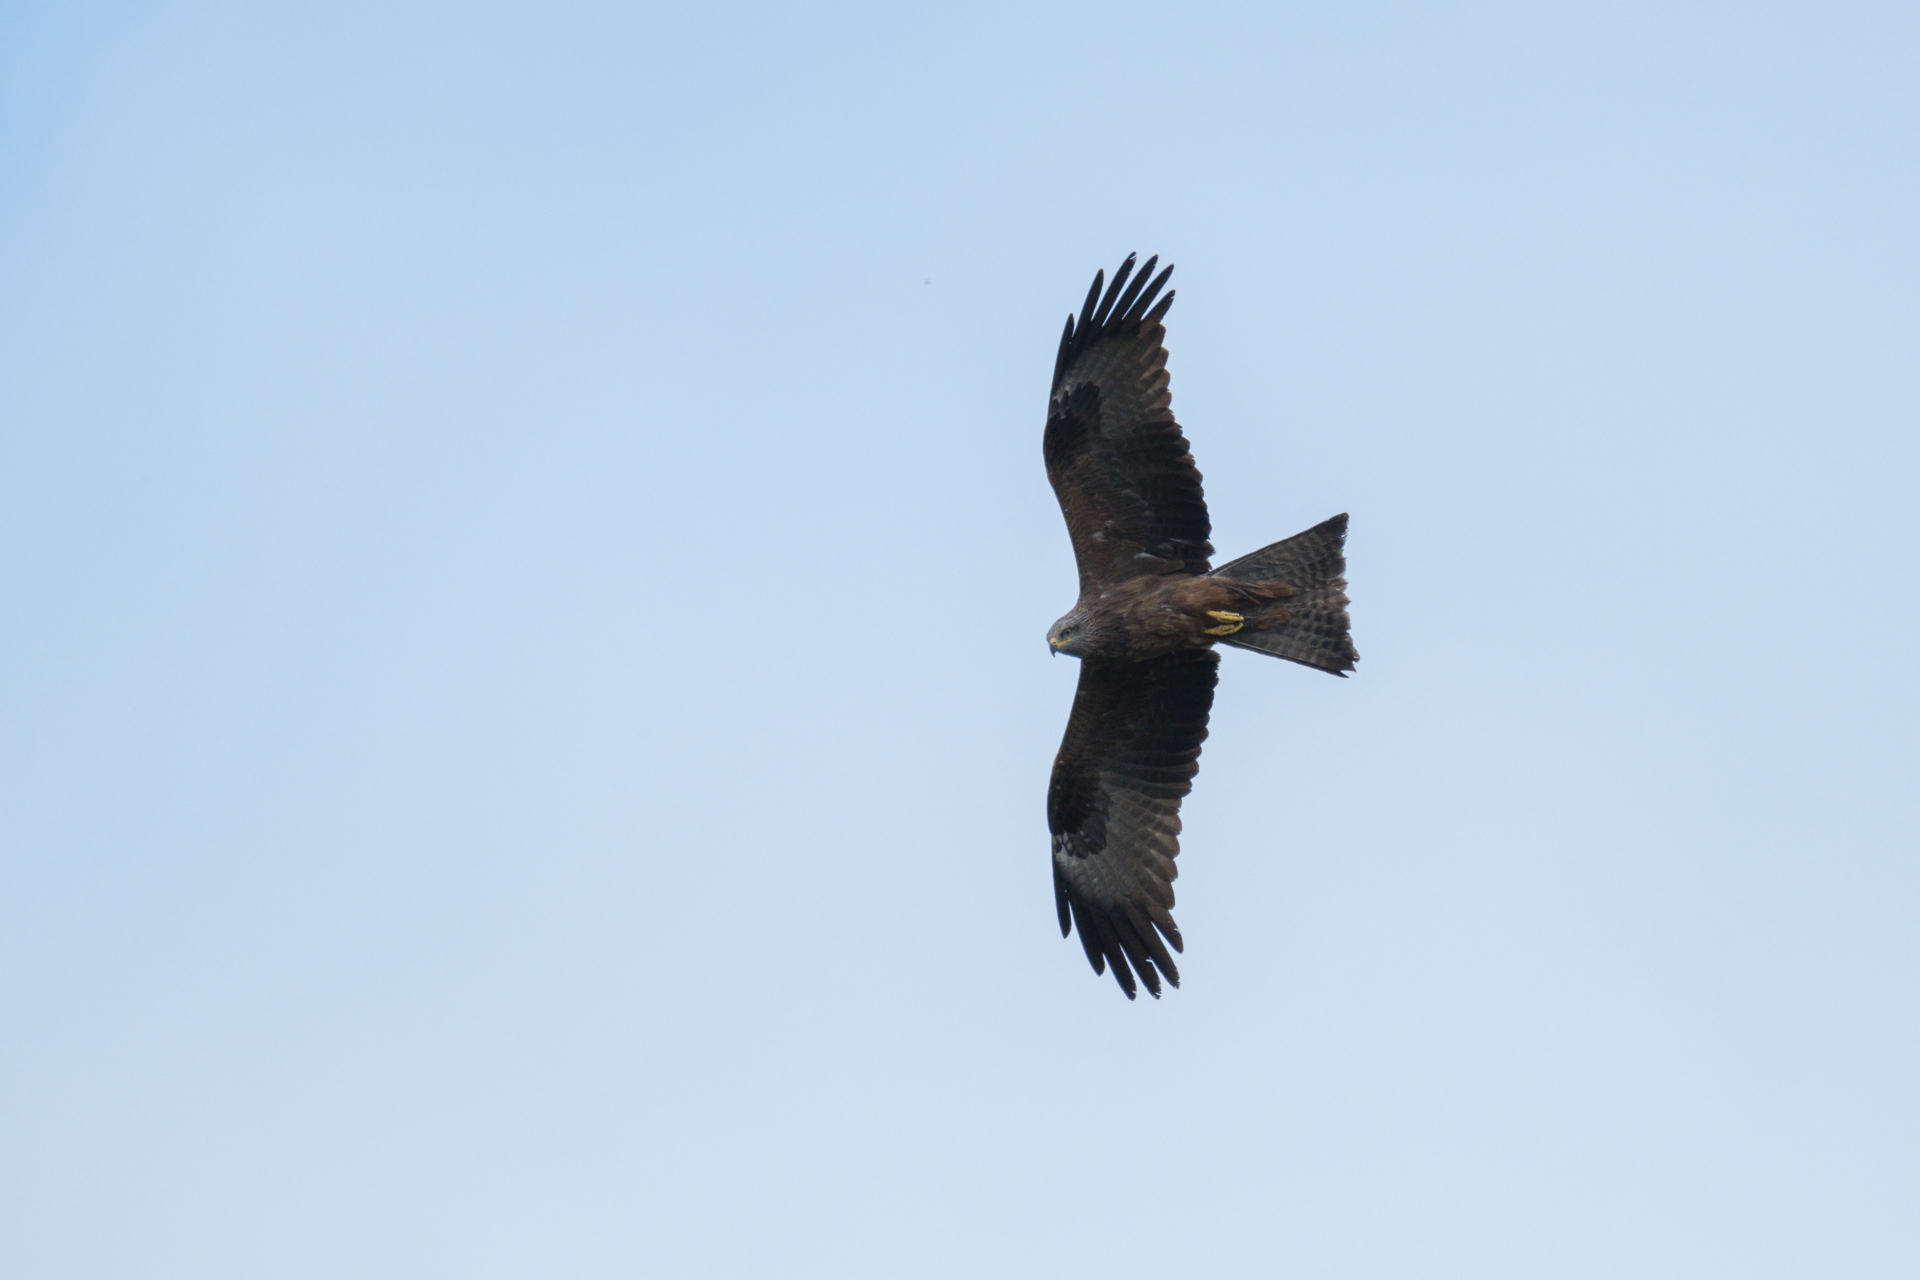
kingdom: Animalia
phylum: Chordata
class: Aves
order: Accipitriformes
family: Accipitridae
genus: Milvus
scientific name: Milvus migrans
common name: Black kite
